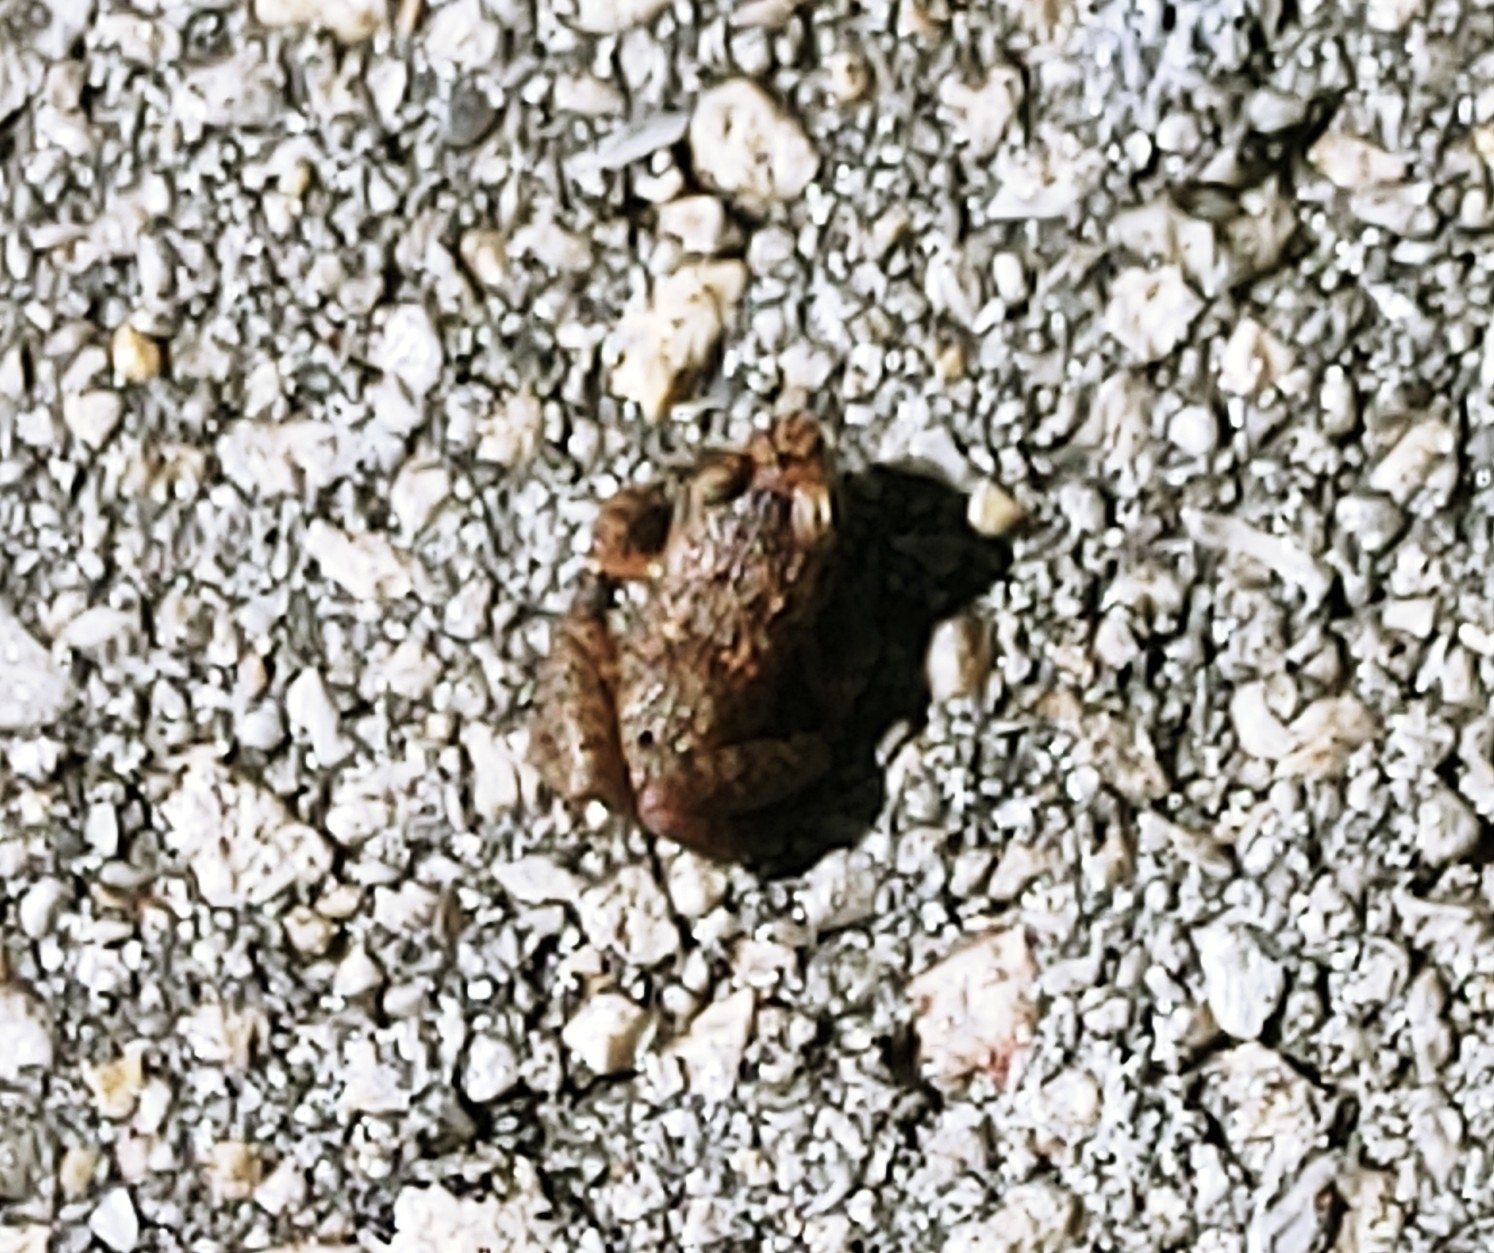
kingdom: Animalia
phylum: Chordata
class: Amphibia
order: Anura
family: Eleutherodactylidae
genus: Eleutherodactylus
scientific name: Eleutherodactylus planirostris
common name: Greenhouse frog
